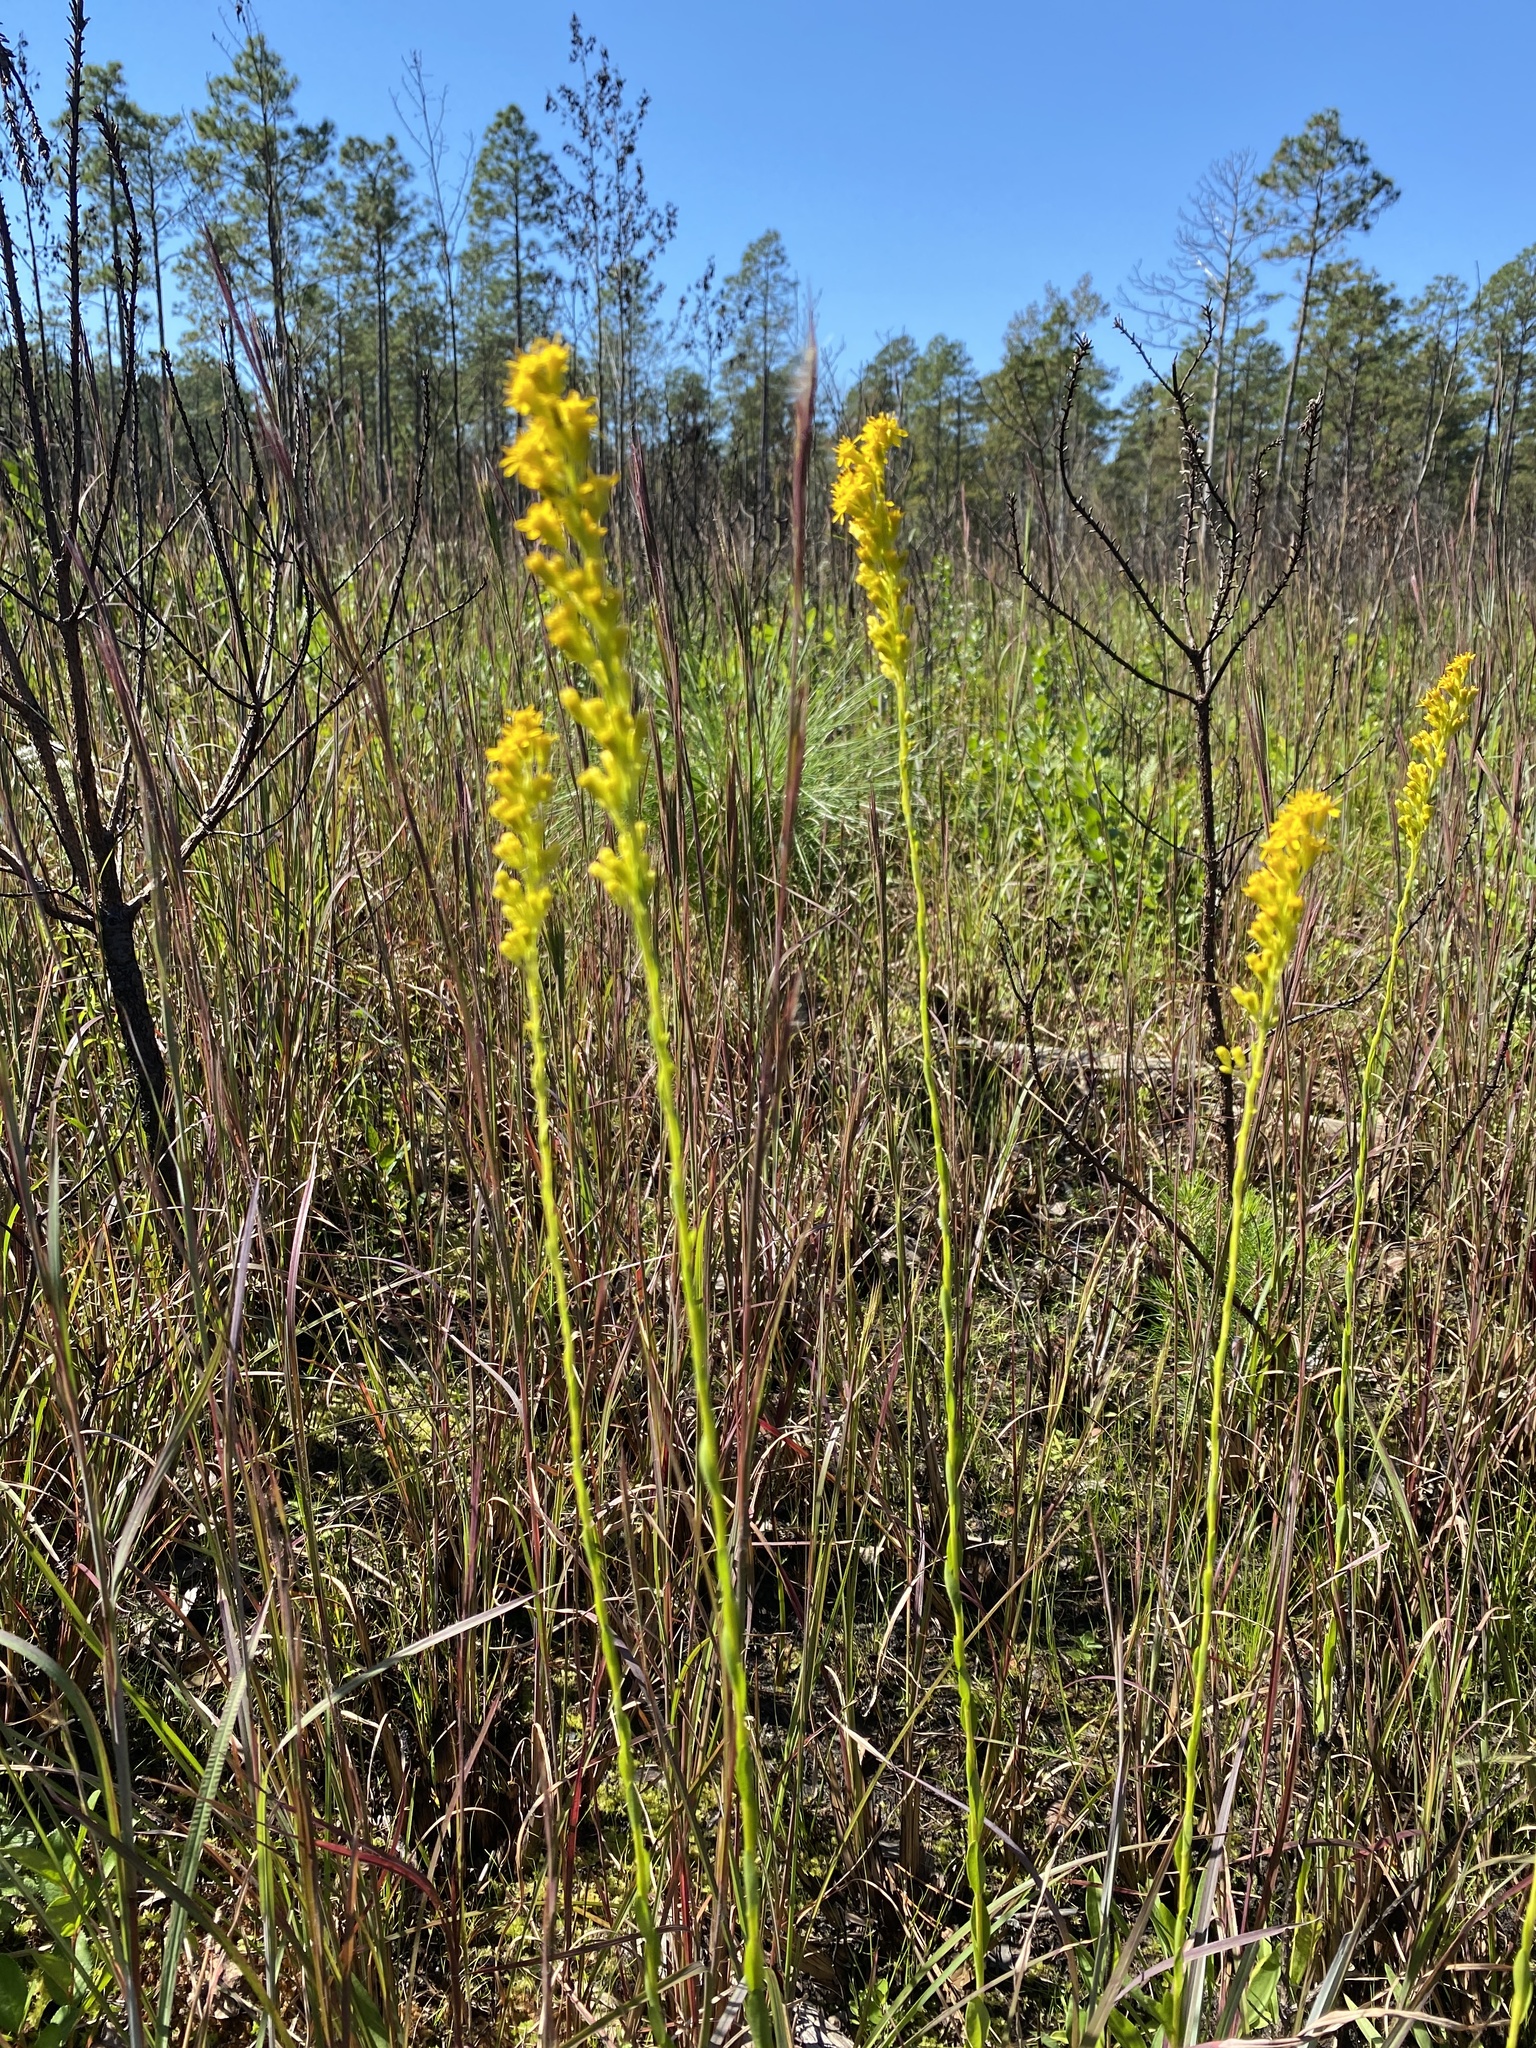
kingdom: Plantae
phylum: Tracheophyta
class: Magnoliopsida
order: Asterales
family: Asteraceae
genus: Solidago
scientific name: Solidago virgata
